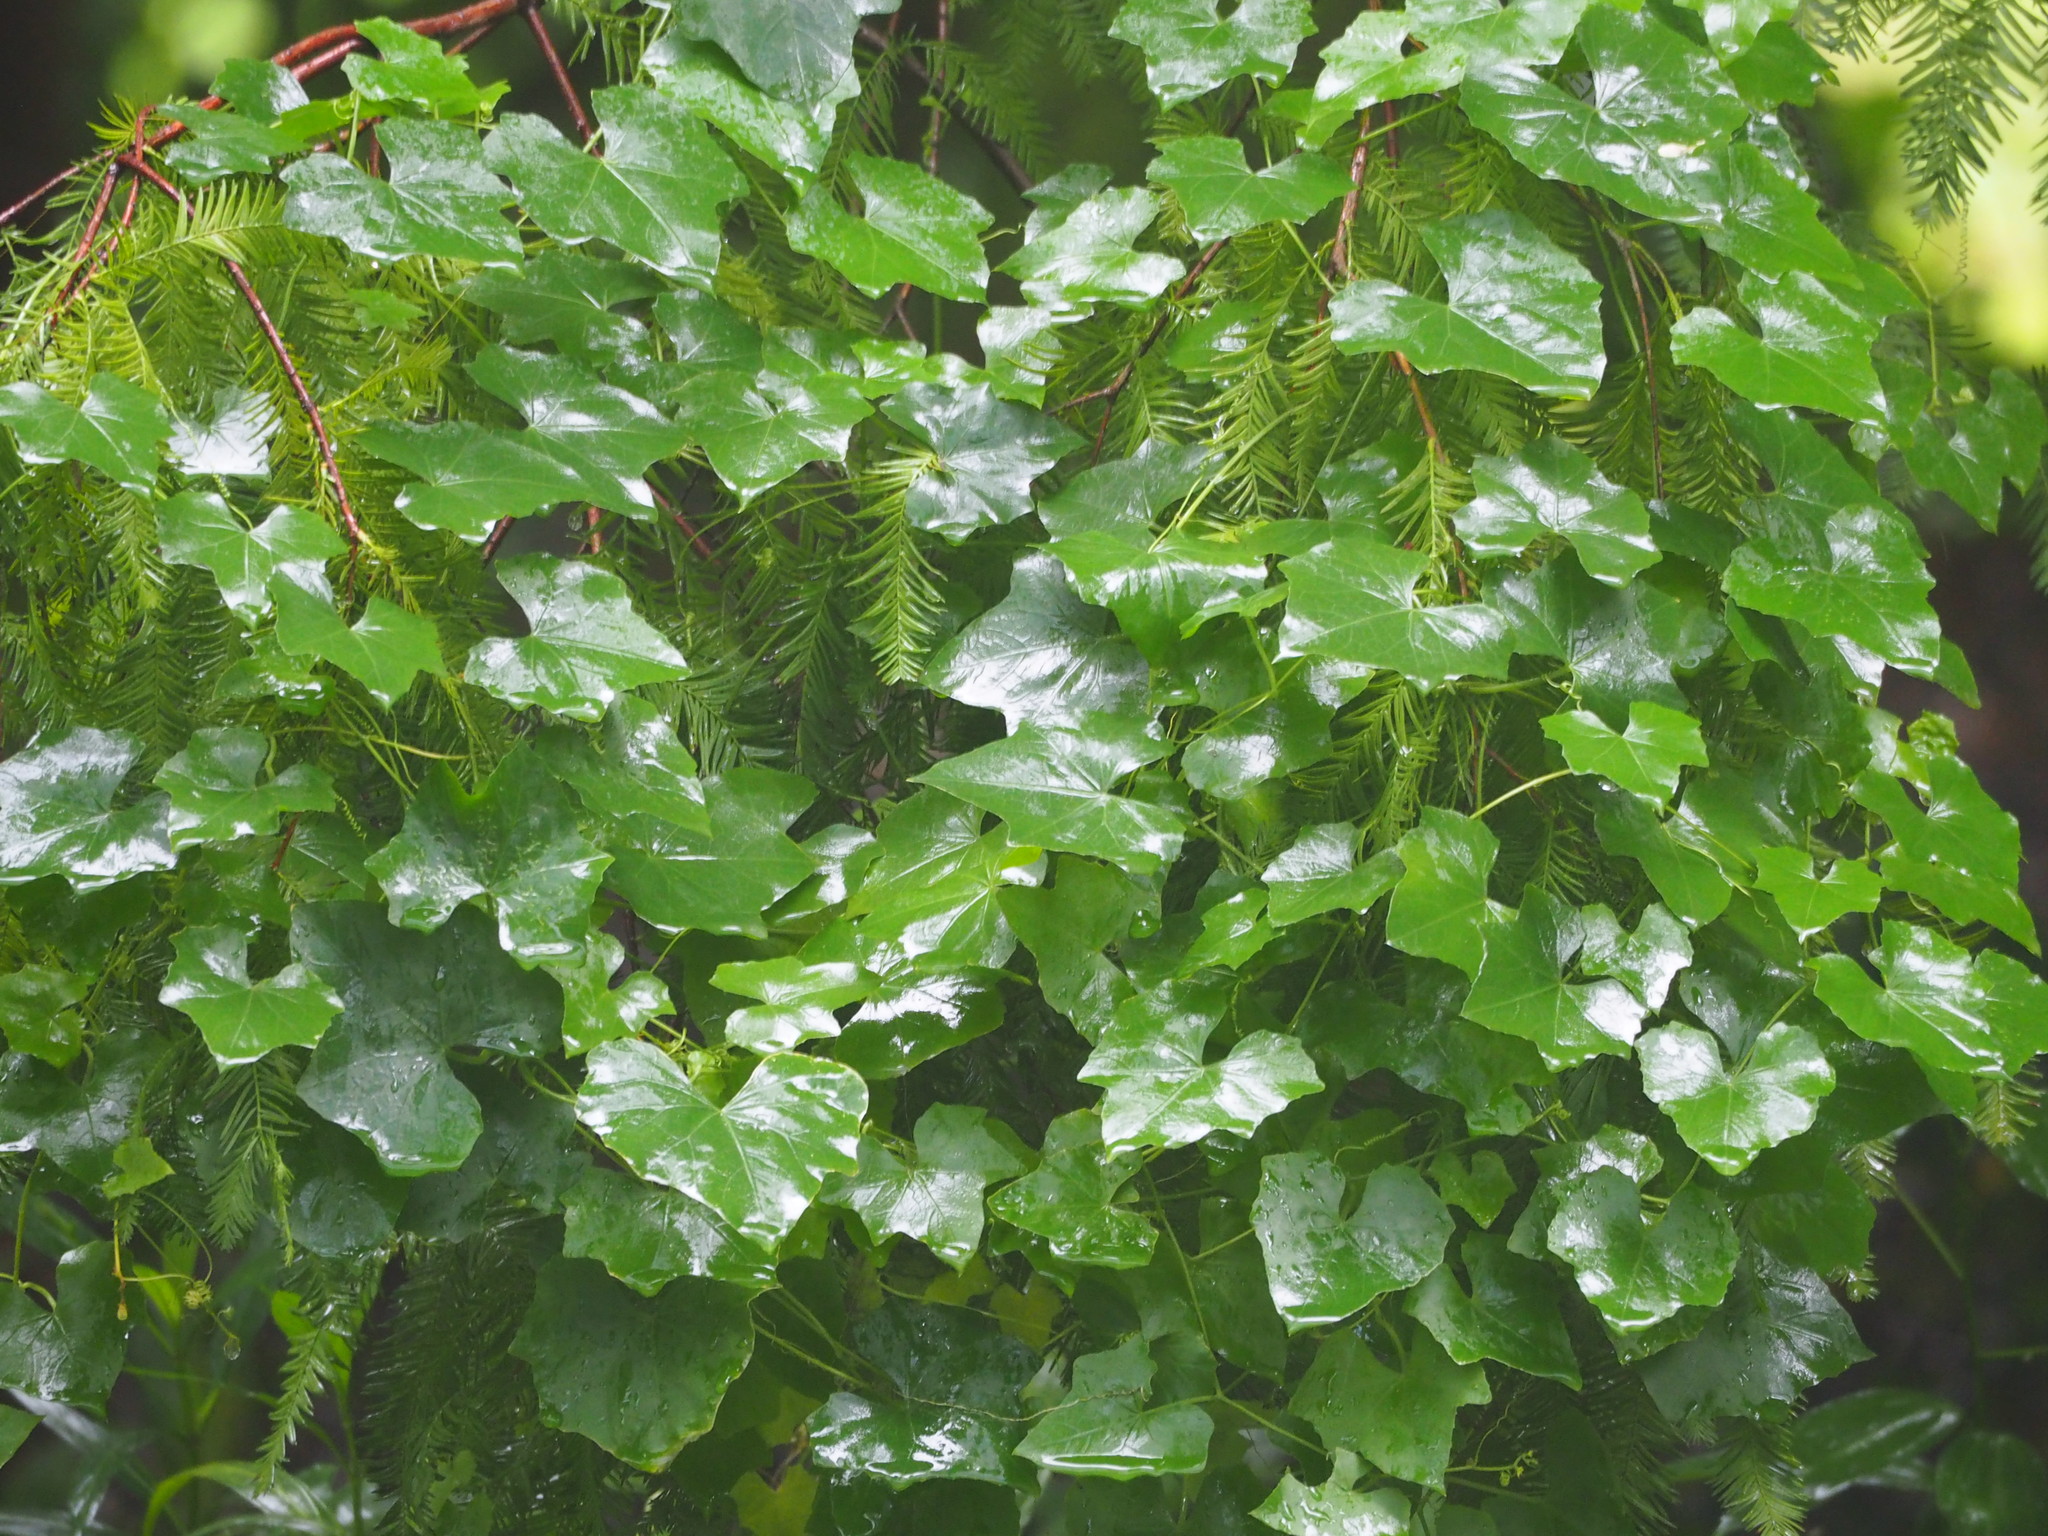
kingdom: Plantae
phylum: Tracheophyta
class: Magnoliopsida
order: Cucurbitales
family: Cucurbitaceae
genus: Melothria
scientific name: Melothria pendula
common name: Creeping-cucumber
